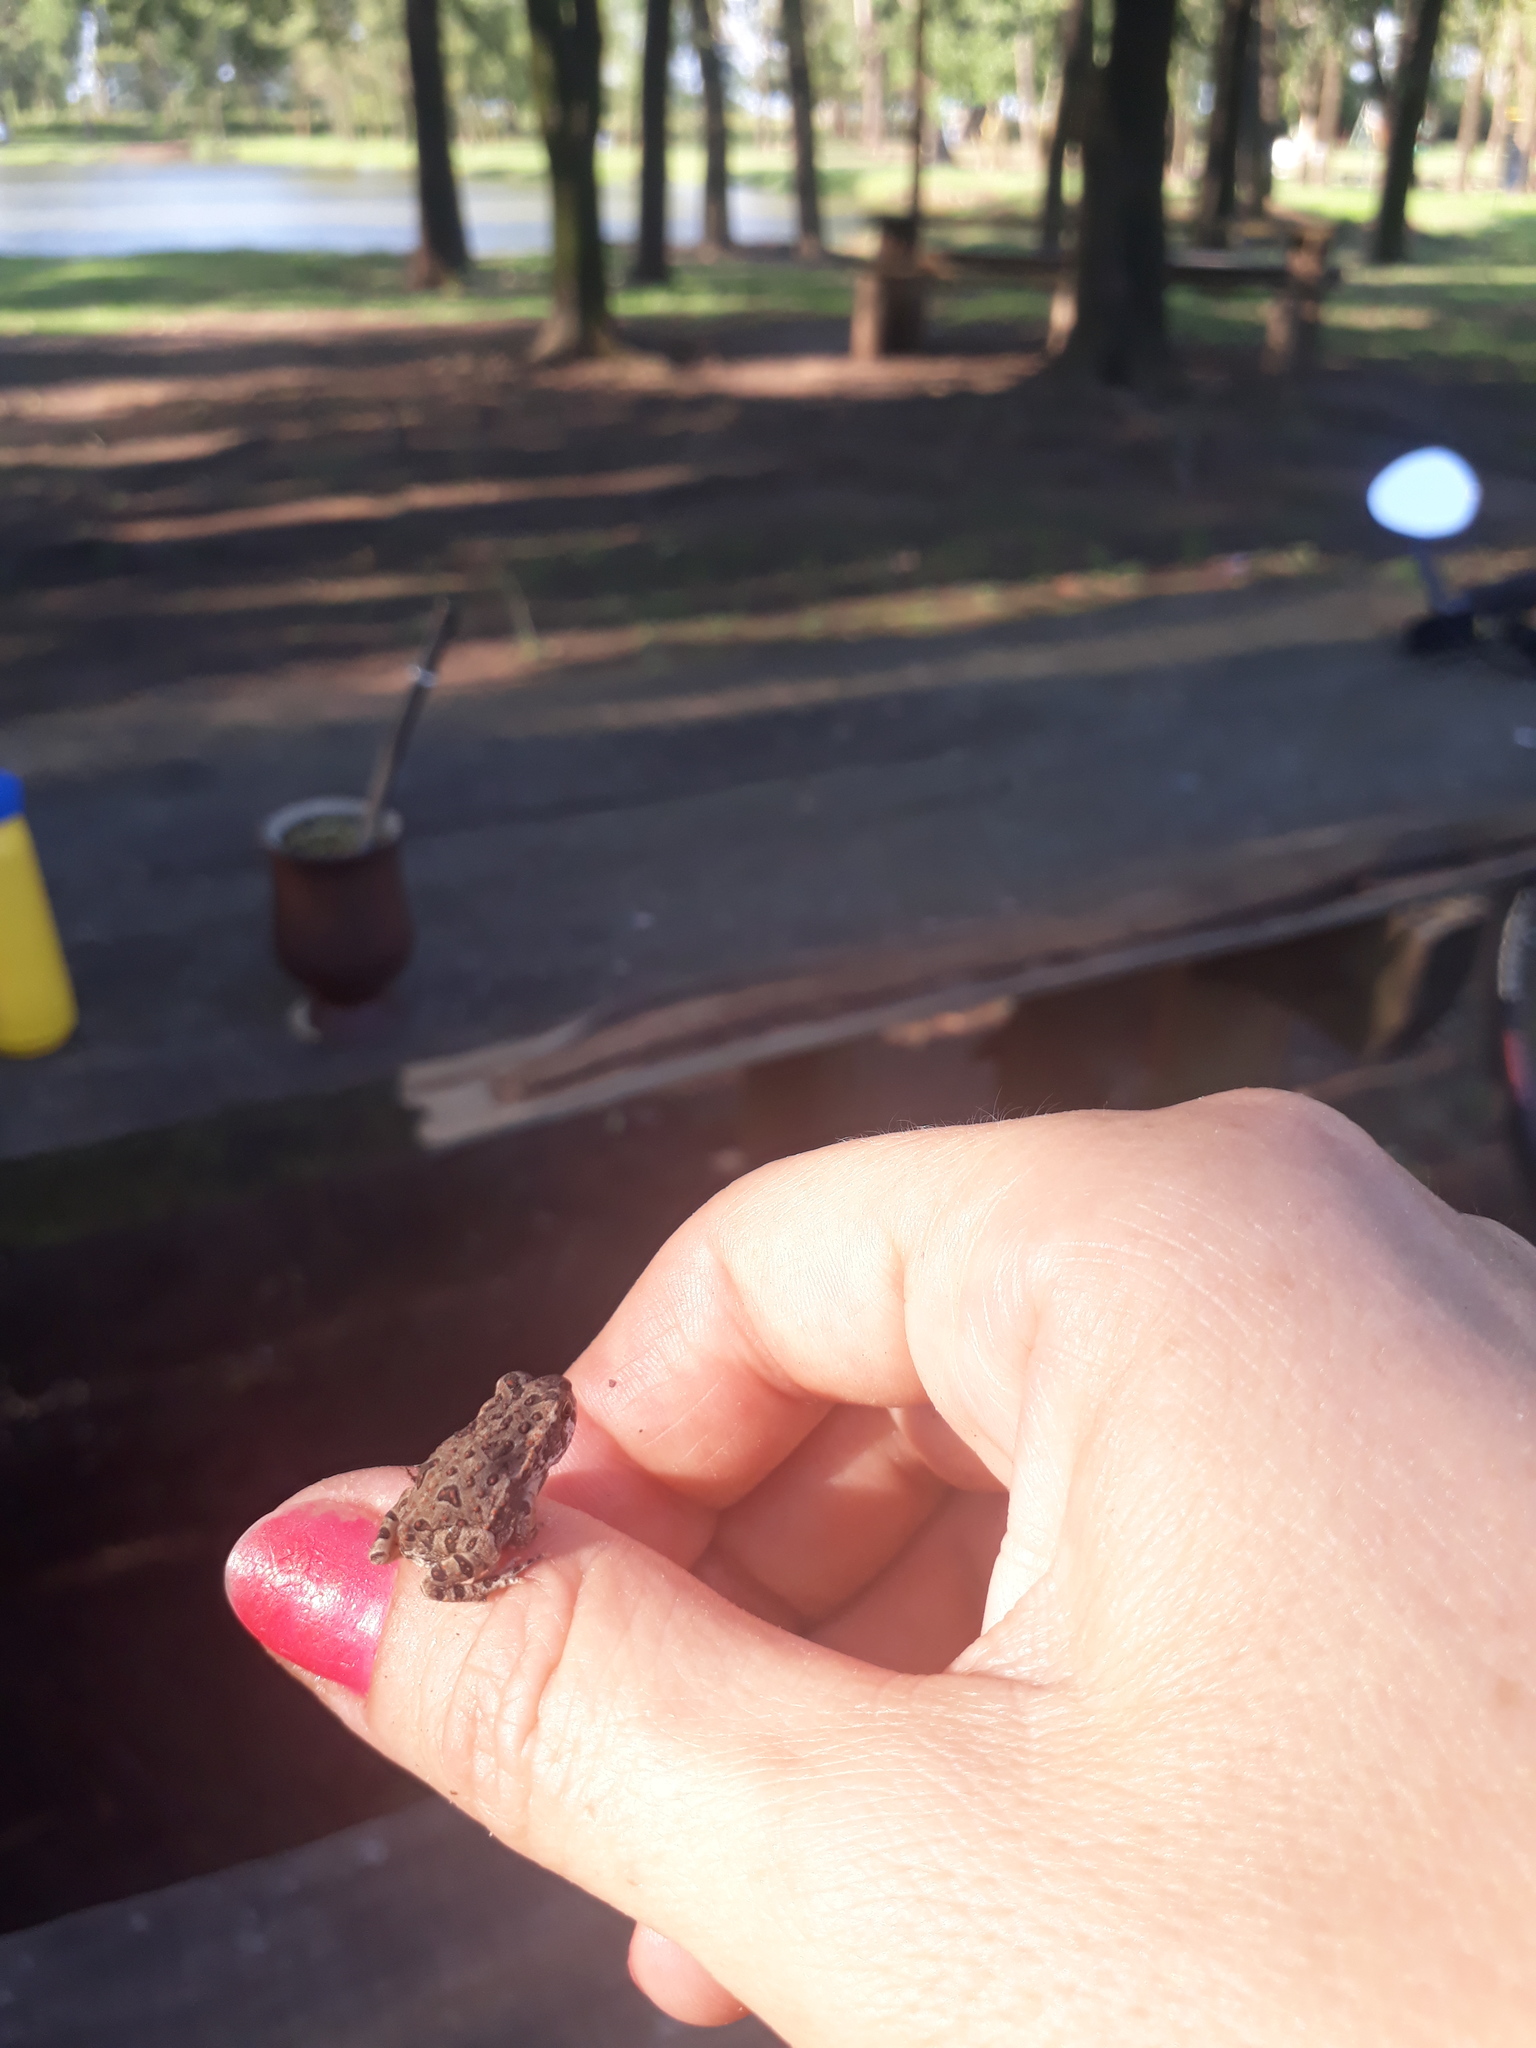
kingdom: Animalia
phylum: Chordata
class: Amphibia
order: Anura
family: Bufonidae
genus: Rhinella
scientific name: Rhinella arenarum
